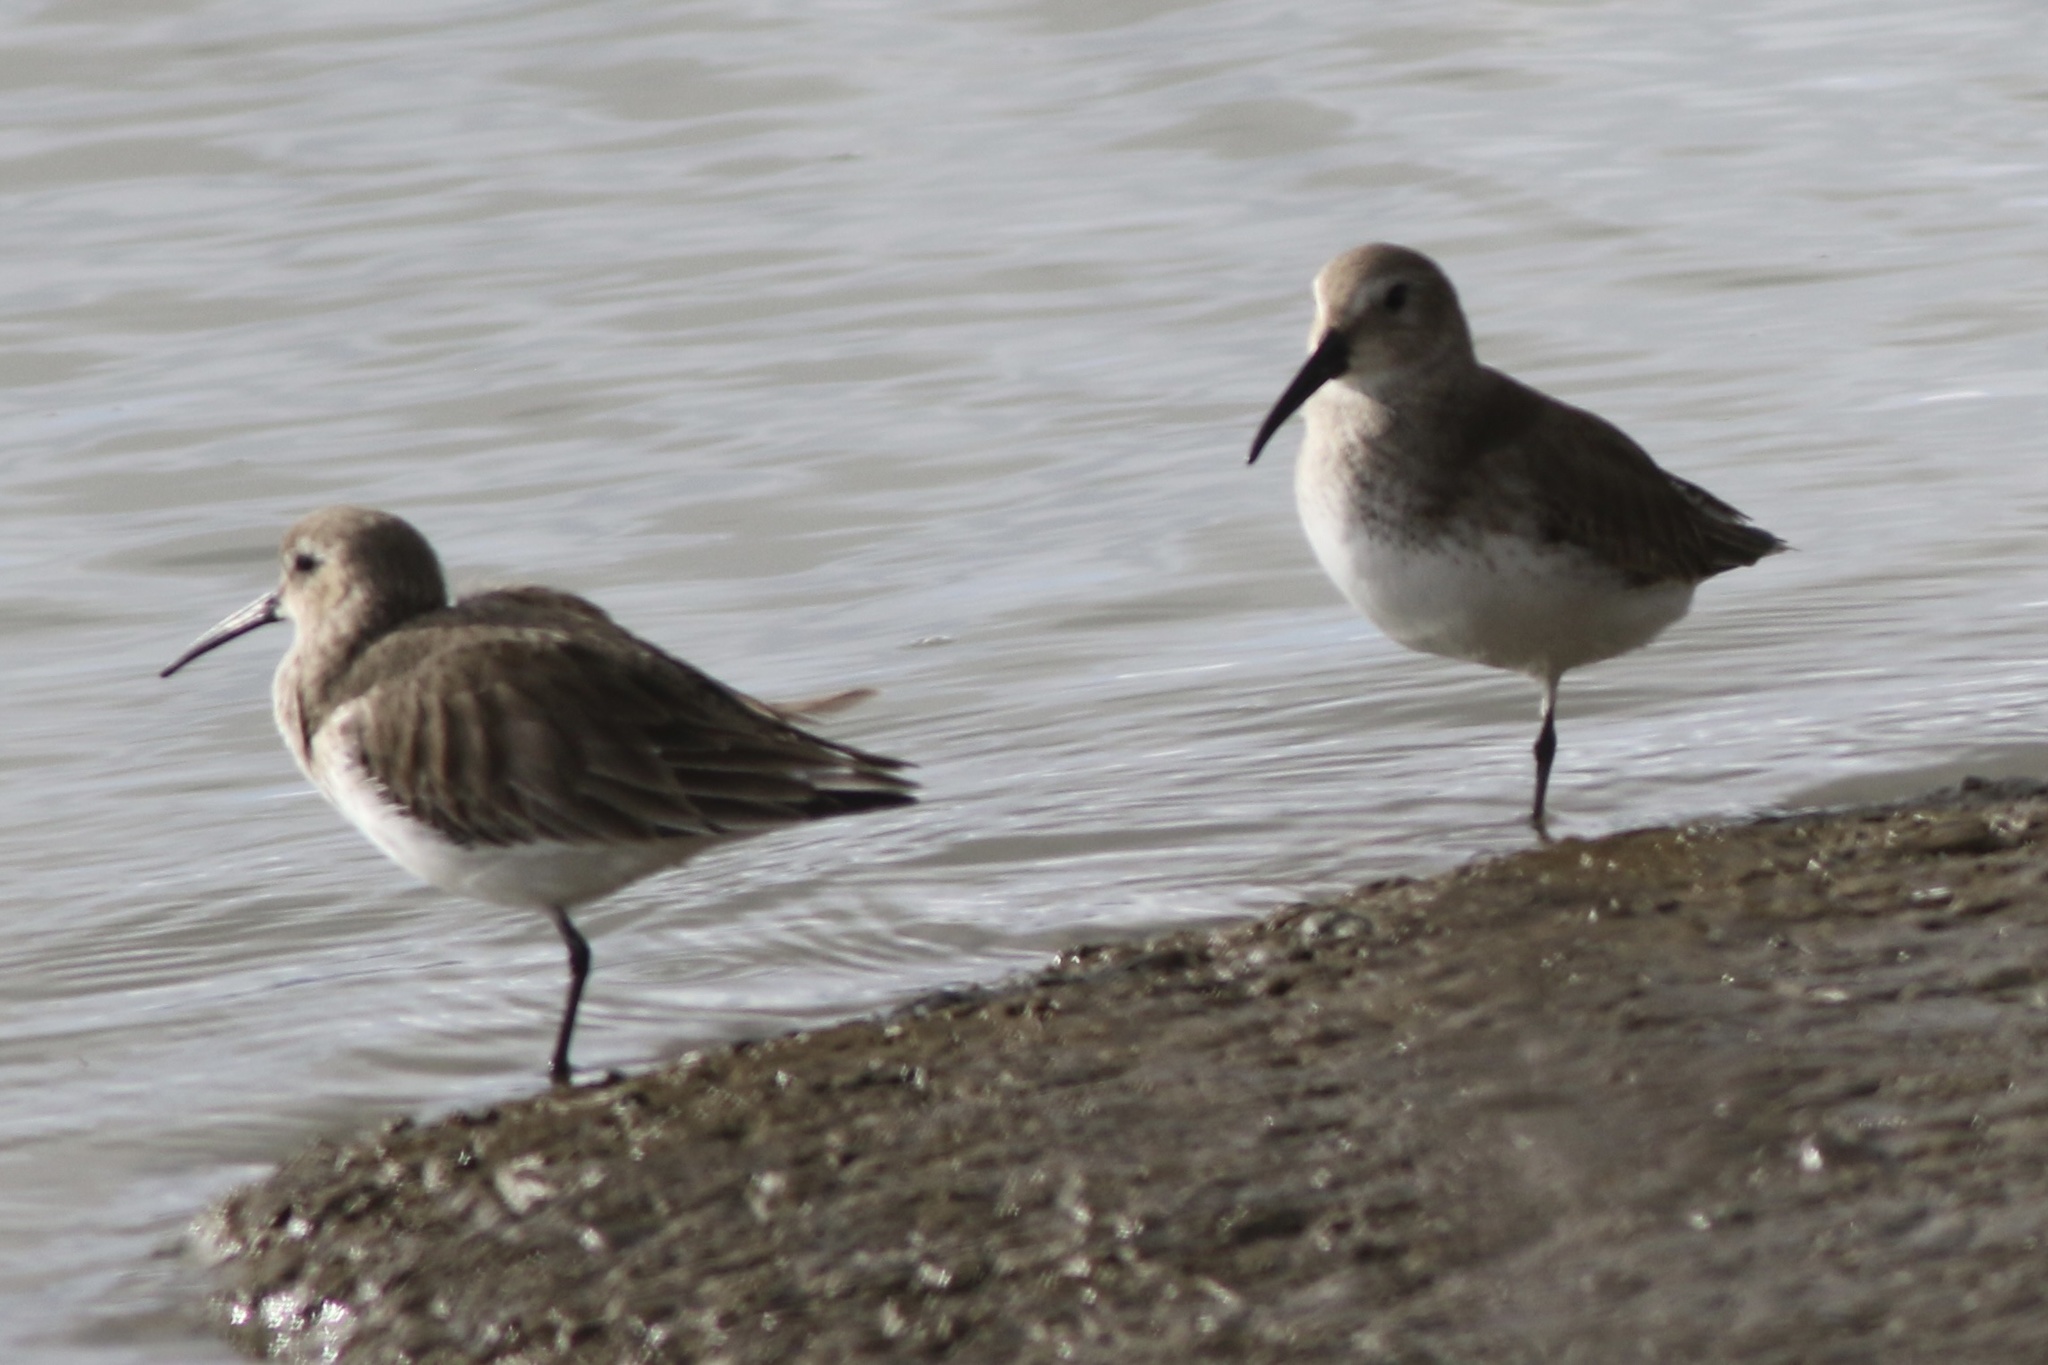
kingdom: Animalia
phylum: Chordata
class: Aves
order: Charadriiformes
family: Scolopacidae
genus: Calidris
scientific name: Calidris alpina
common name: Dunlin
